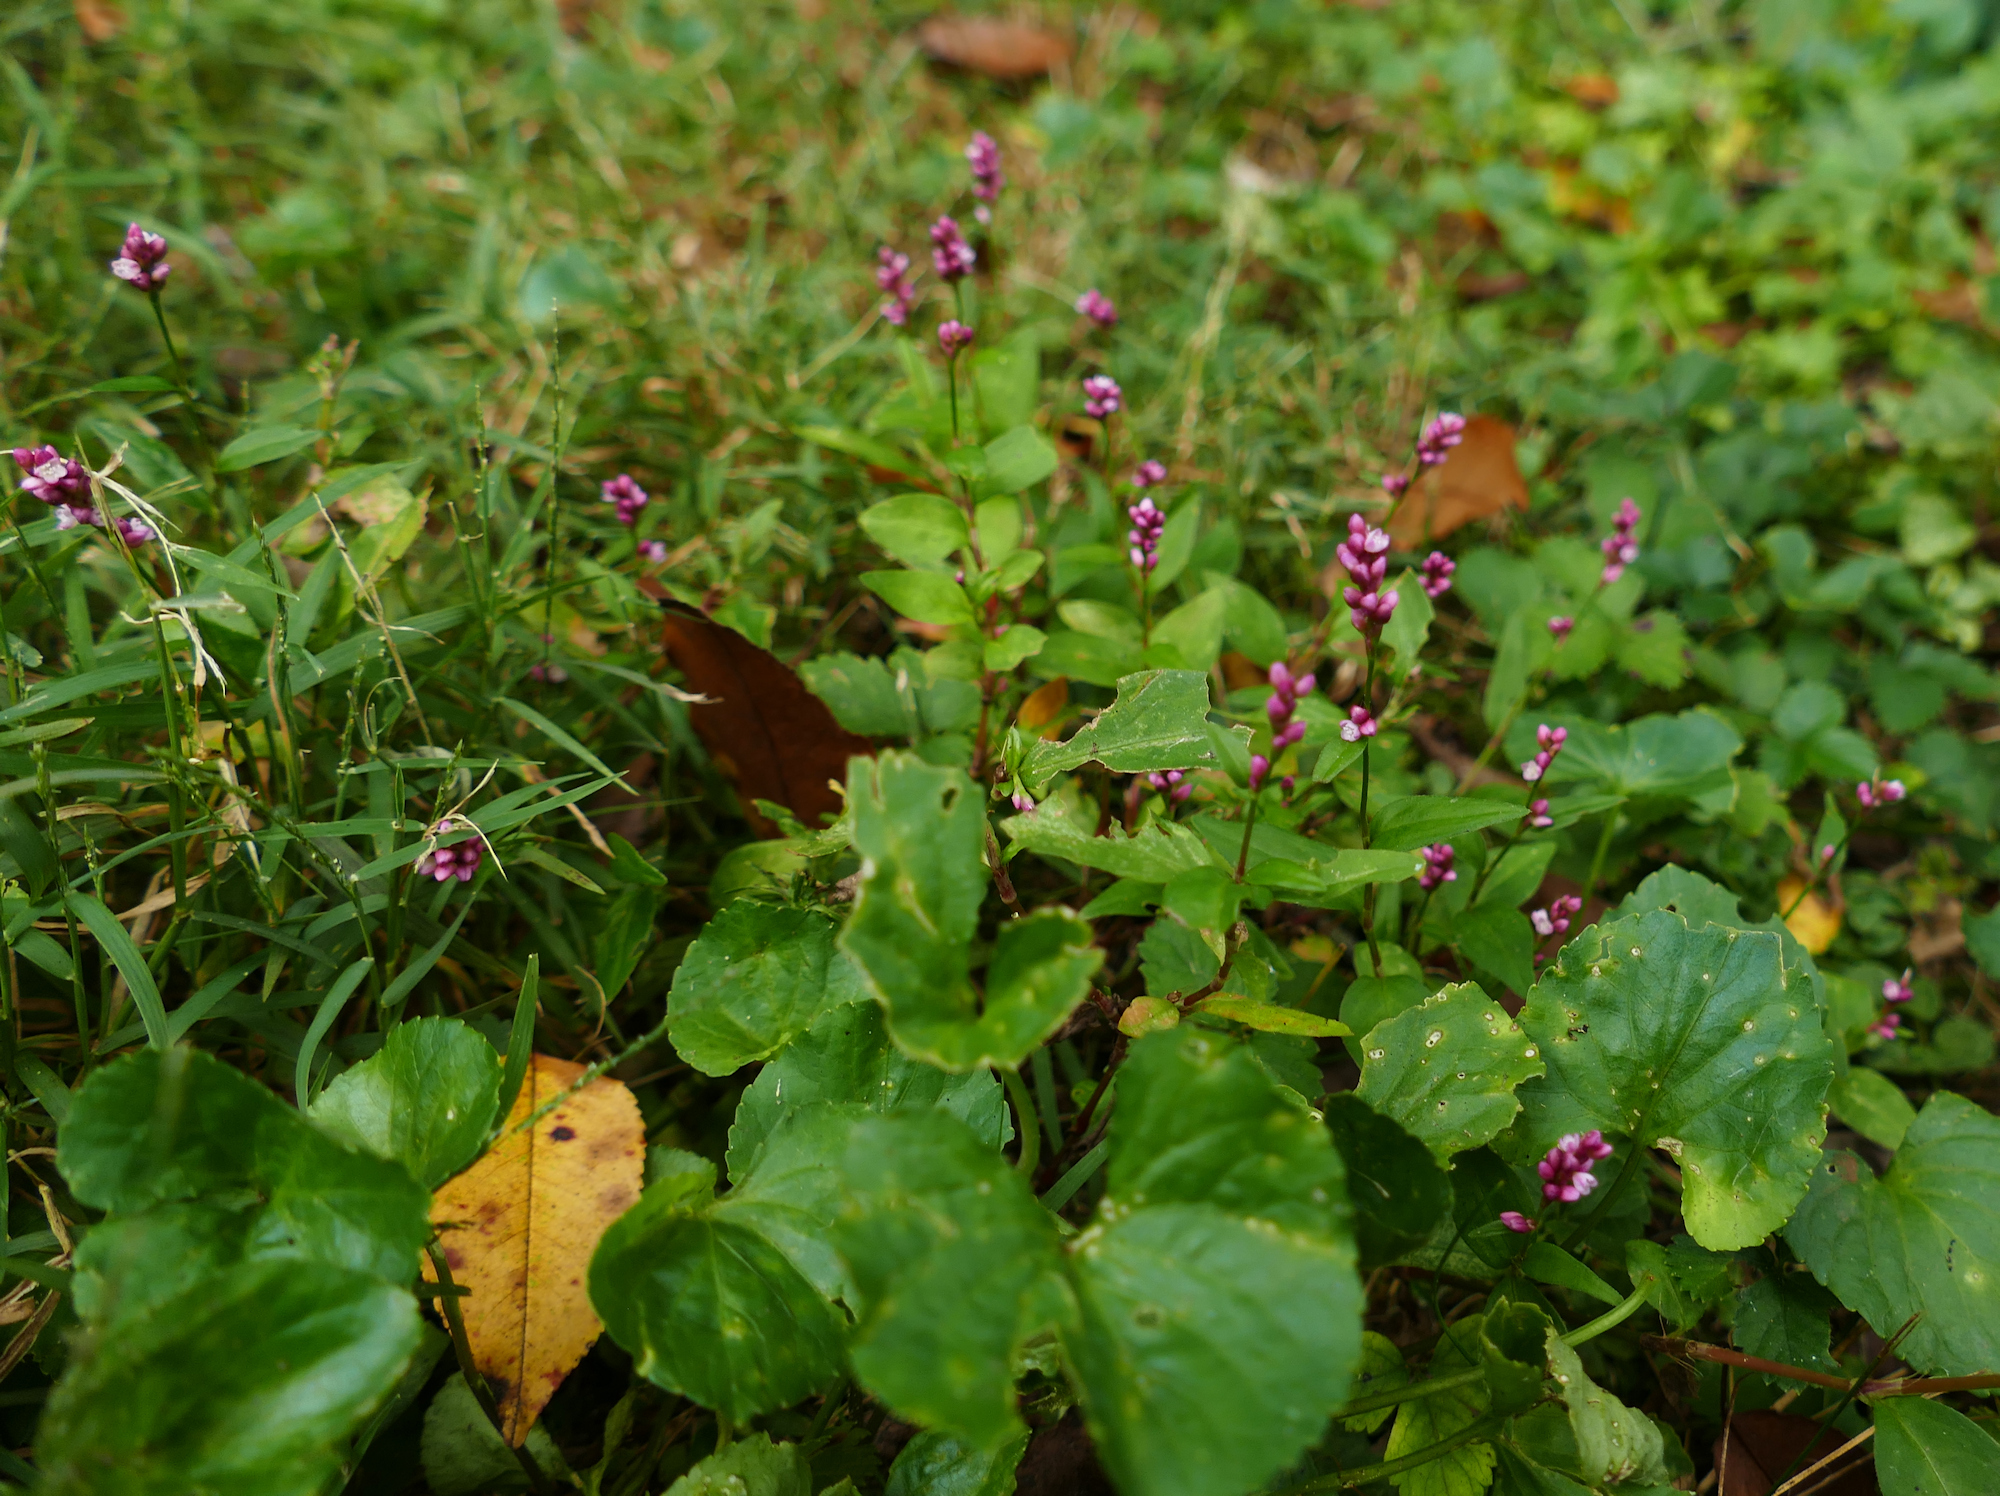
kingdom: Plantae
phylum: Tracheophyta
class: Magnoliopsida
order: Caryophyllales
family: Polygonaceae
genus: Persicaria
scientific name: Persicaria longiseta
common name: Bristly lady's-thumb
